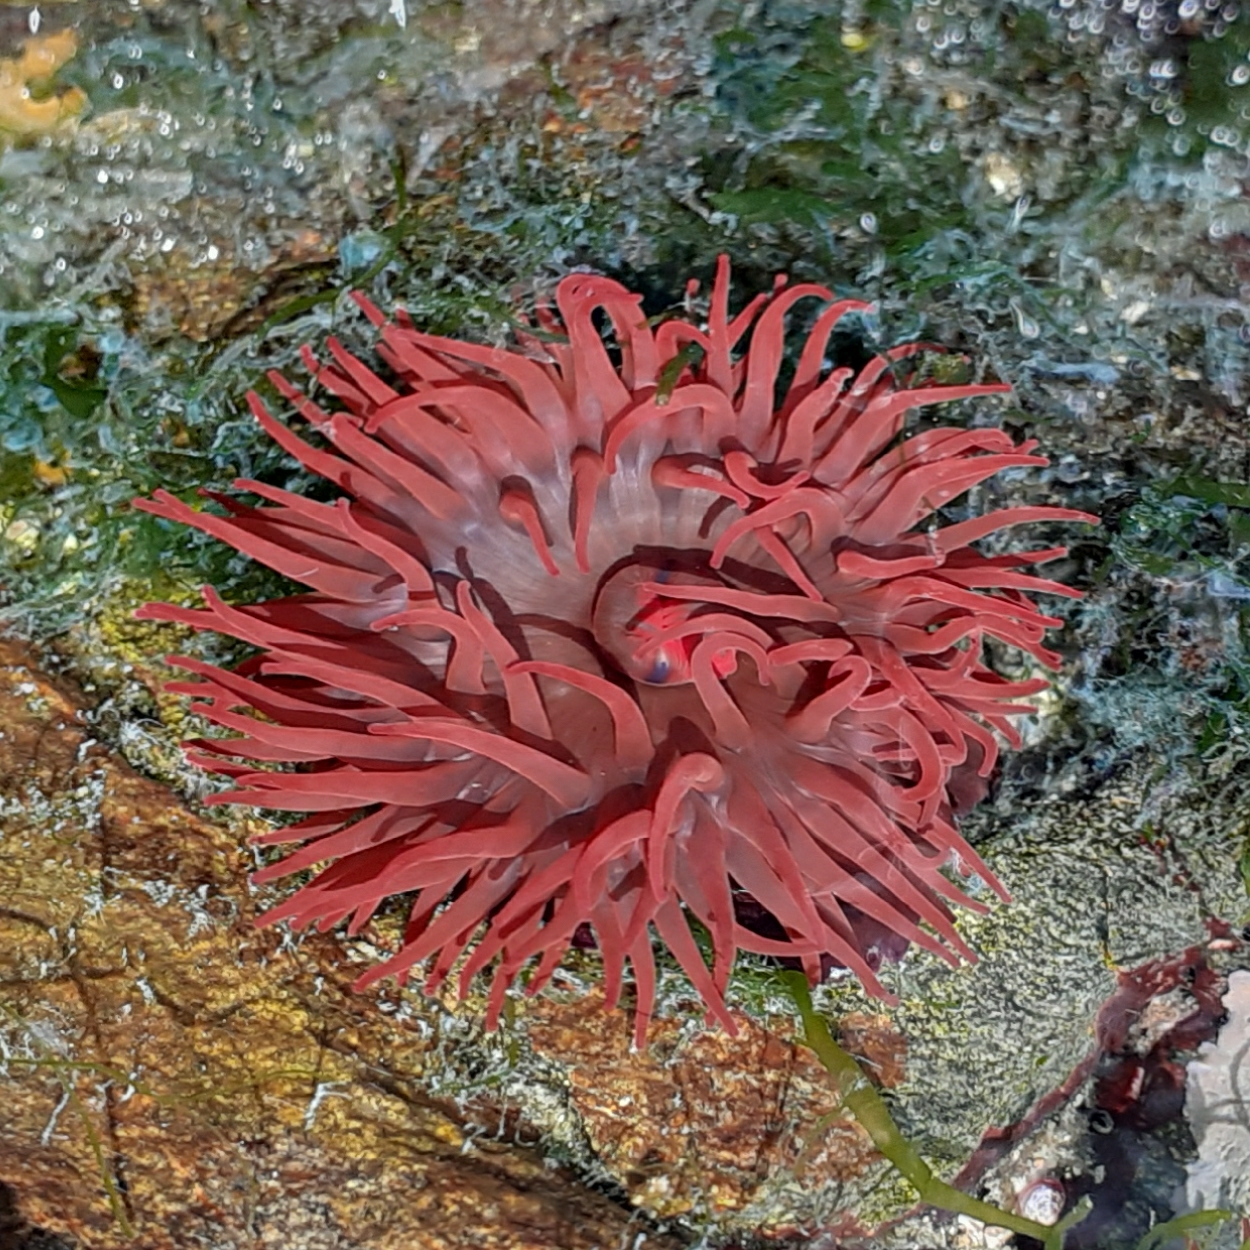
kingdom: Animalia
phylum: Cnidaria
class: Anthozoa
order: Actiniaria
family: Actiniidae
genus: Actinia
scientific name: Actinia equina
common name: Beadlet anemone
